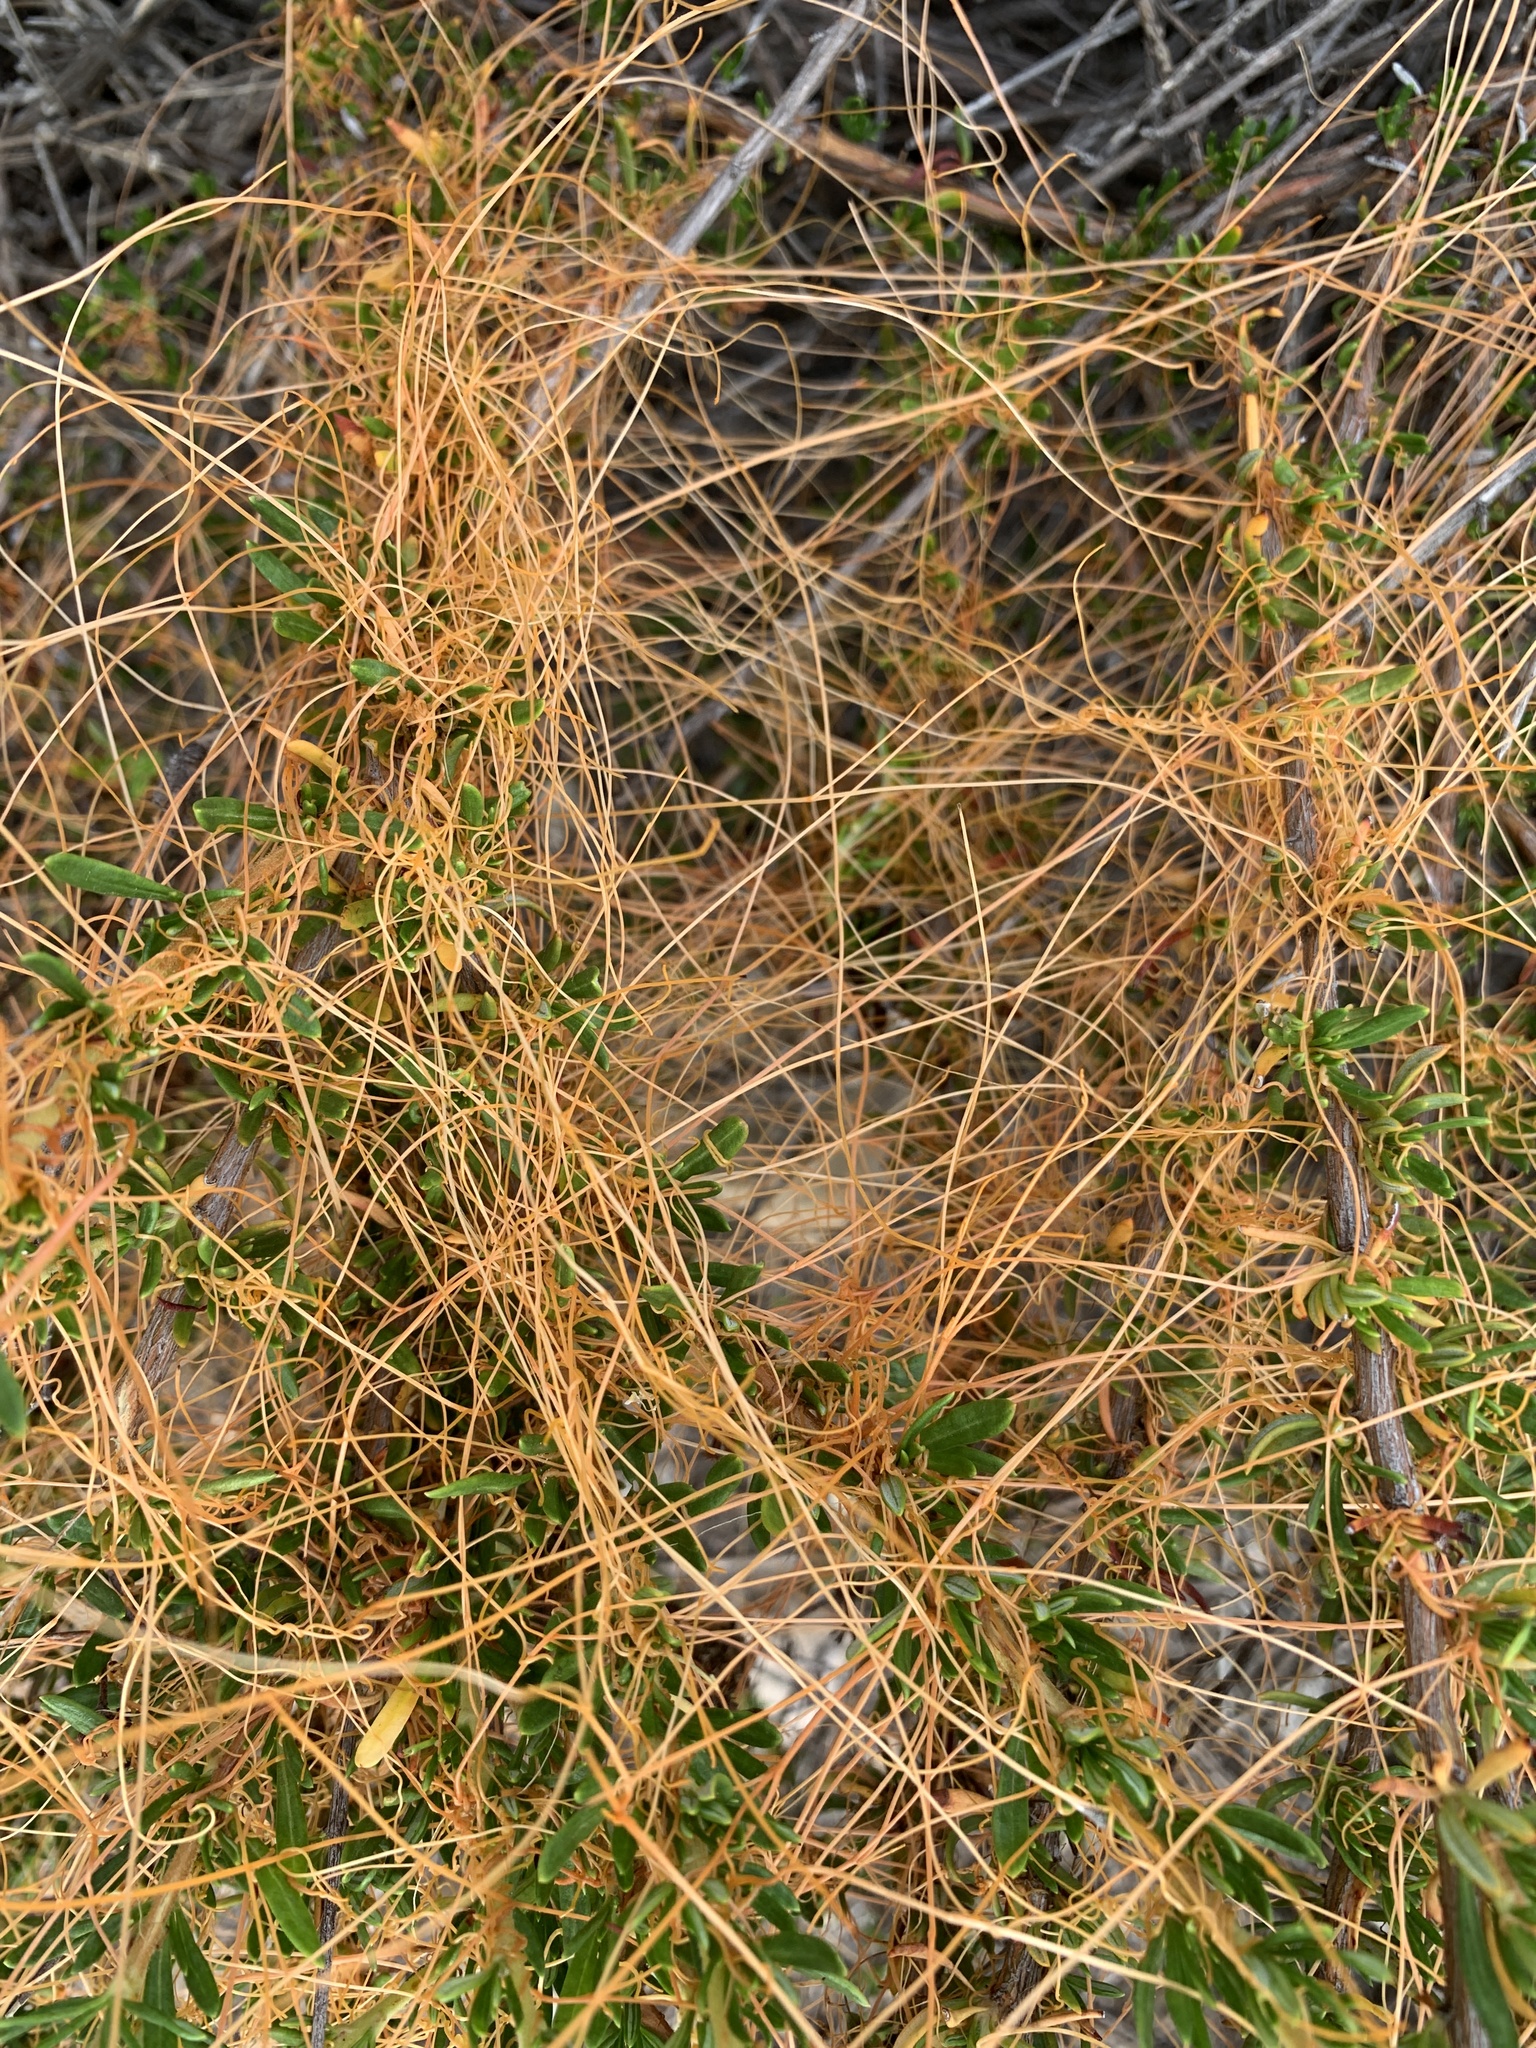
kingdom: Plantae
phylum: Tracheophyta
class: Magnoliopsida
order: Solanales
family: Convolvulaceae
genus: Cuscuta
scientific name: Cuscuta californica
